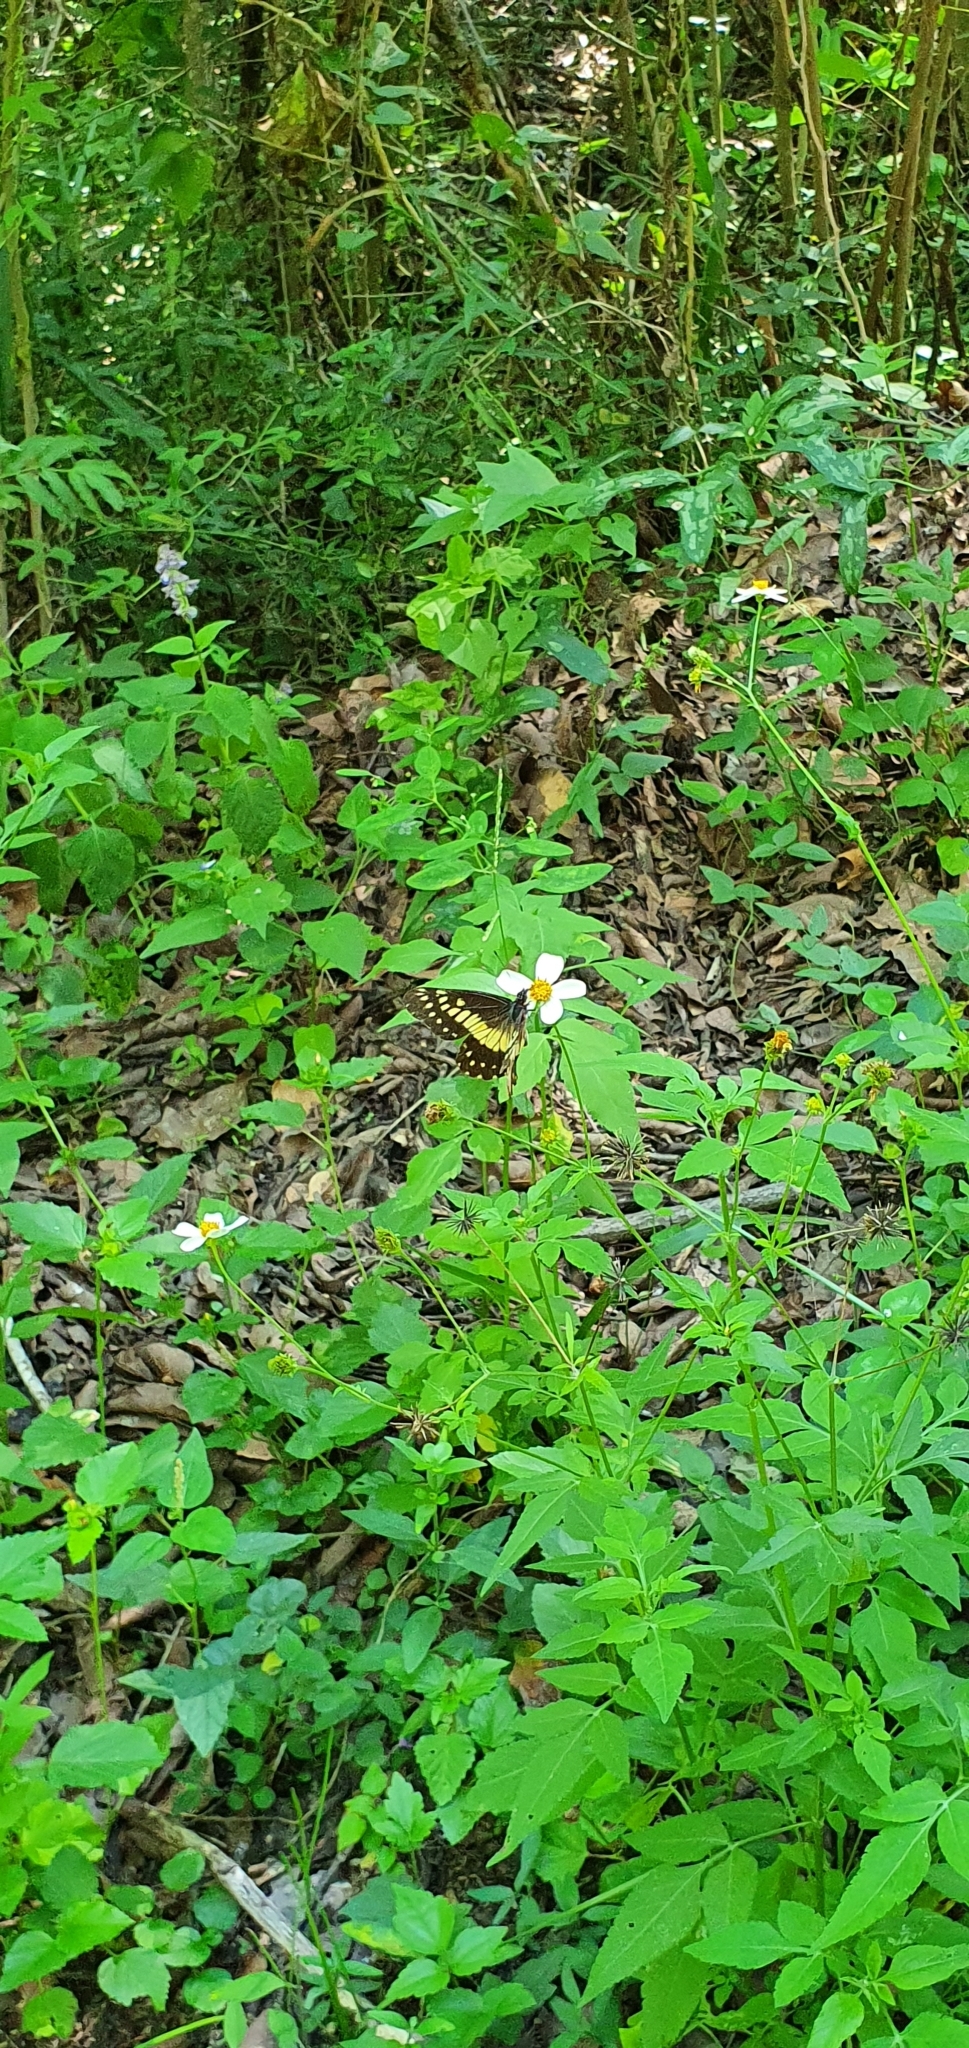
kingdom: Animalia
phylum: Arthropoda
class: Insecta
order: Lepidoptera
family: Pieridae
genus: Archonias
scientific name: Archonias nimbice
